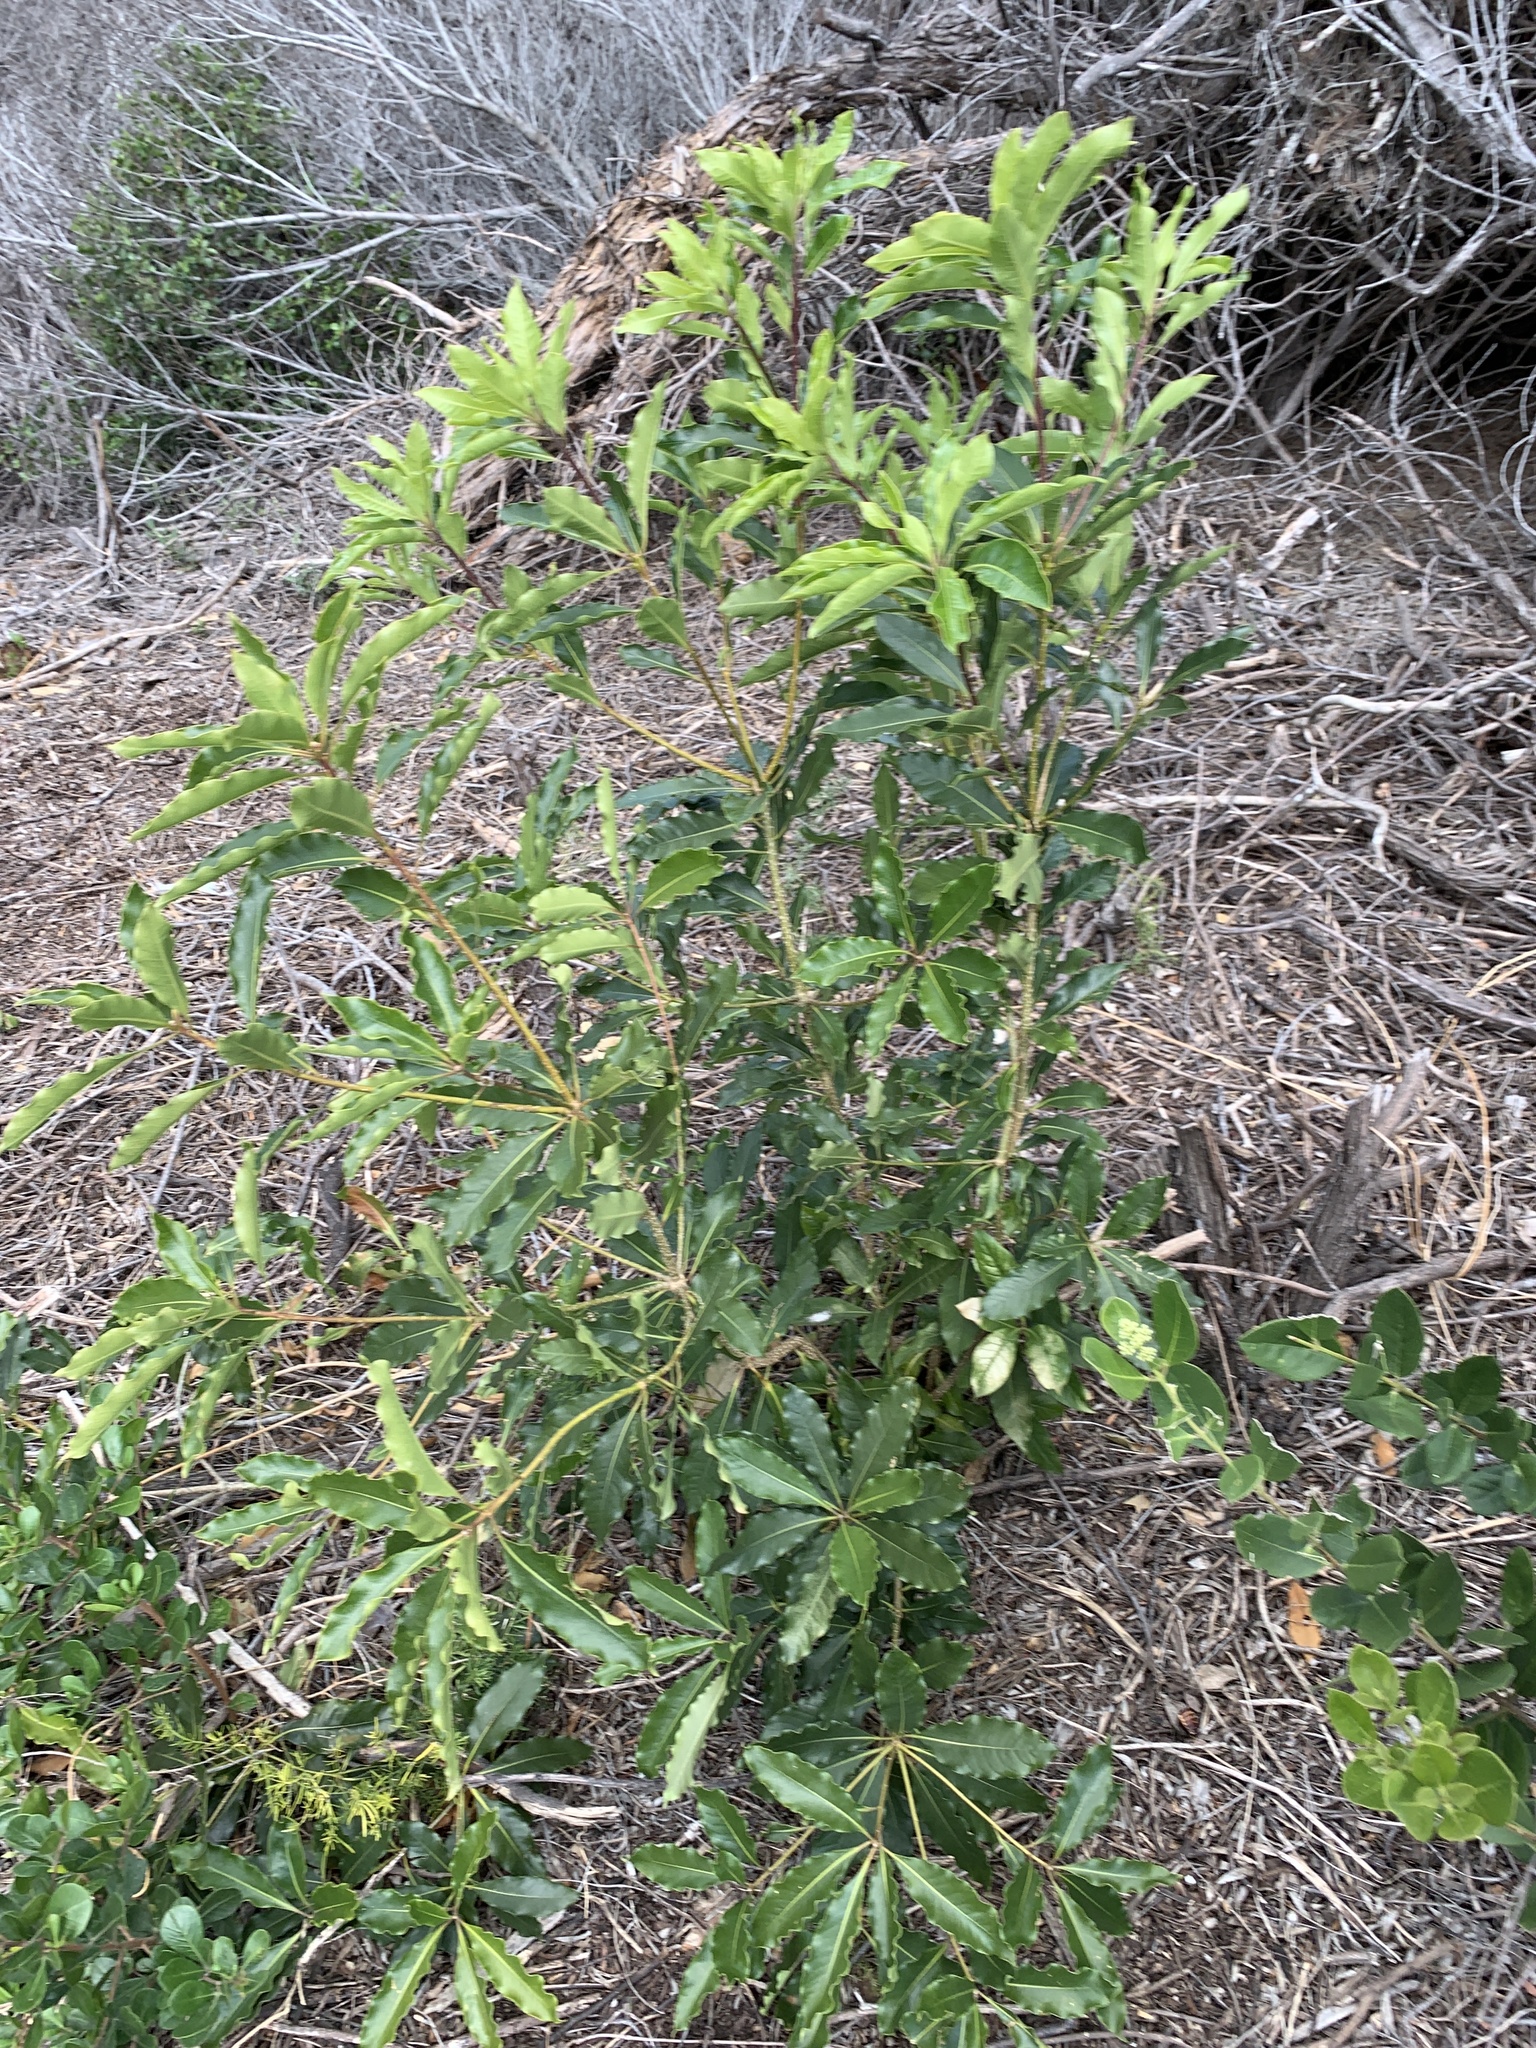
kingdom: Plantae
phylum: Tracheophyta
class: Magnoliopsida
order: Apiales
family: Pittosporaceae
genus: Pittosporum
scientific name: Pittosporum undulatum
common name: Australian cheesewood
